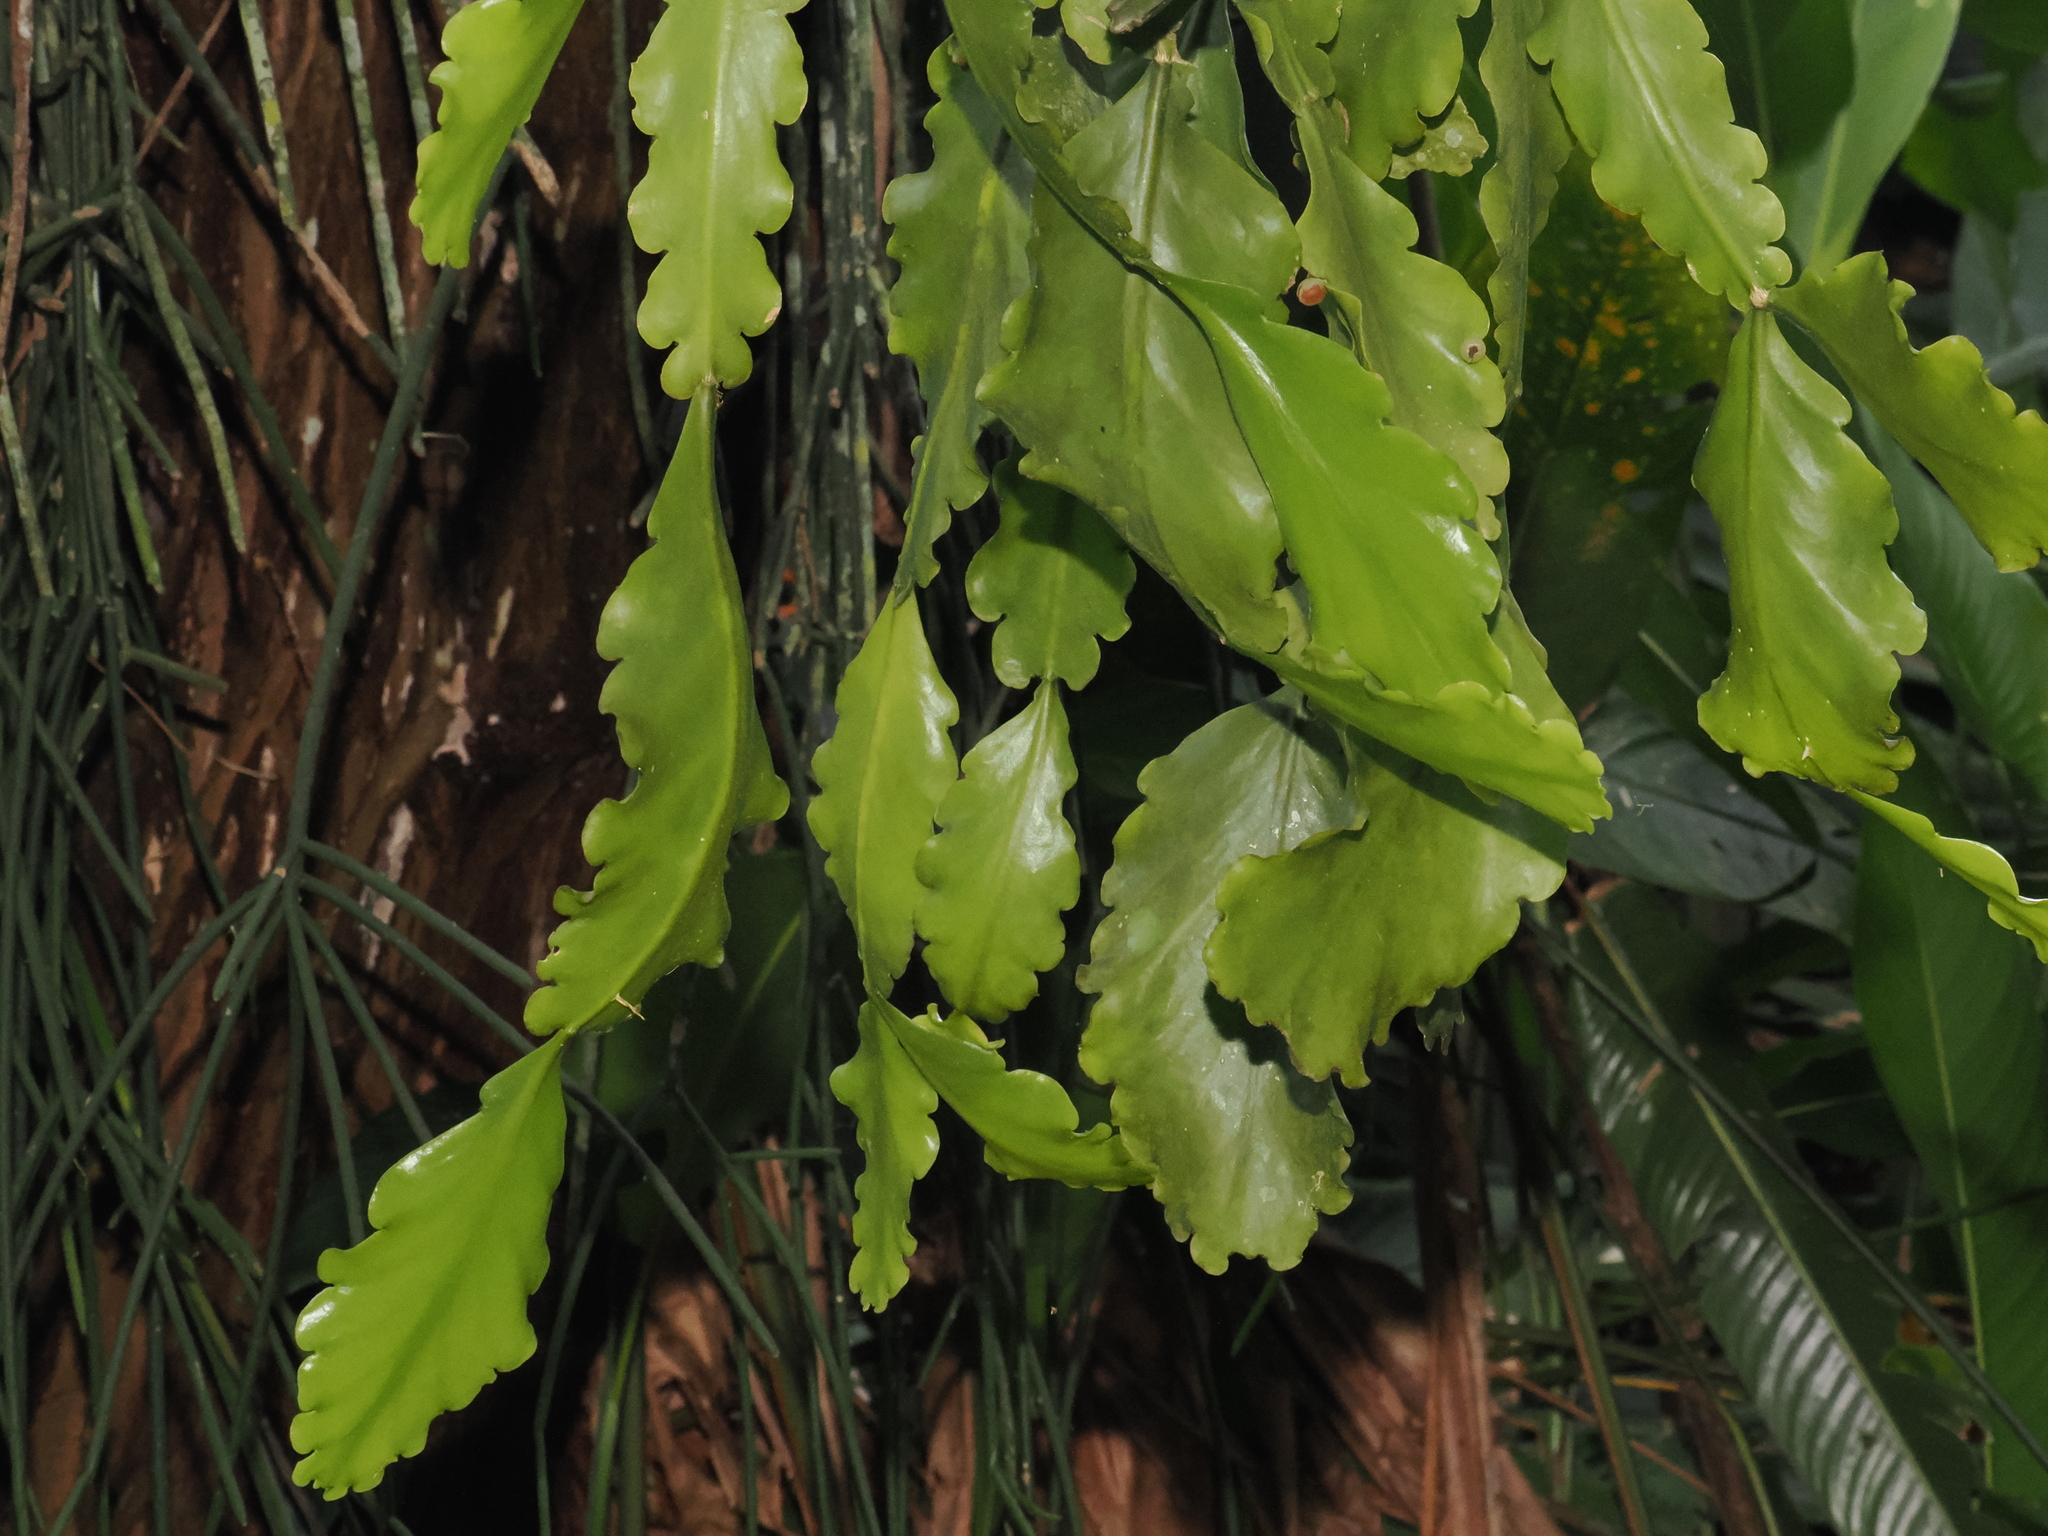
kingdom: Plantae
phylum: Tracheophyta
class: Magnoliopsida
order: Caryophyllales
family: Cactaceae
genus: Rhipsalis
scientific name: Rhipsalis crispata
